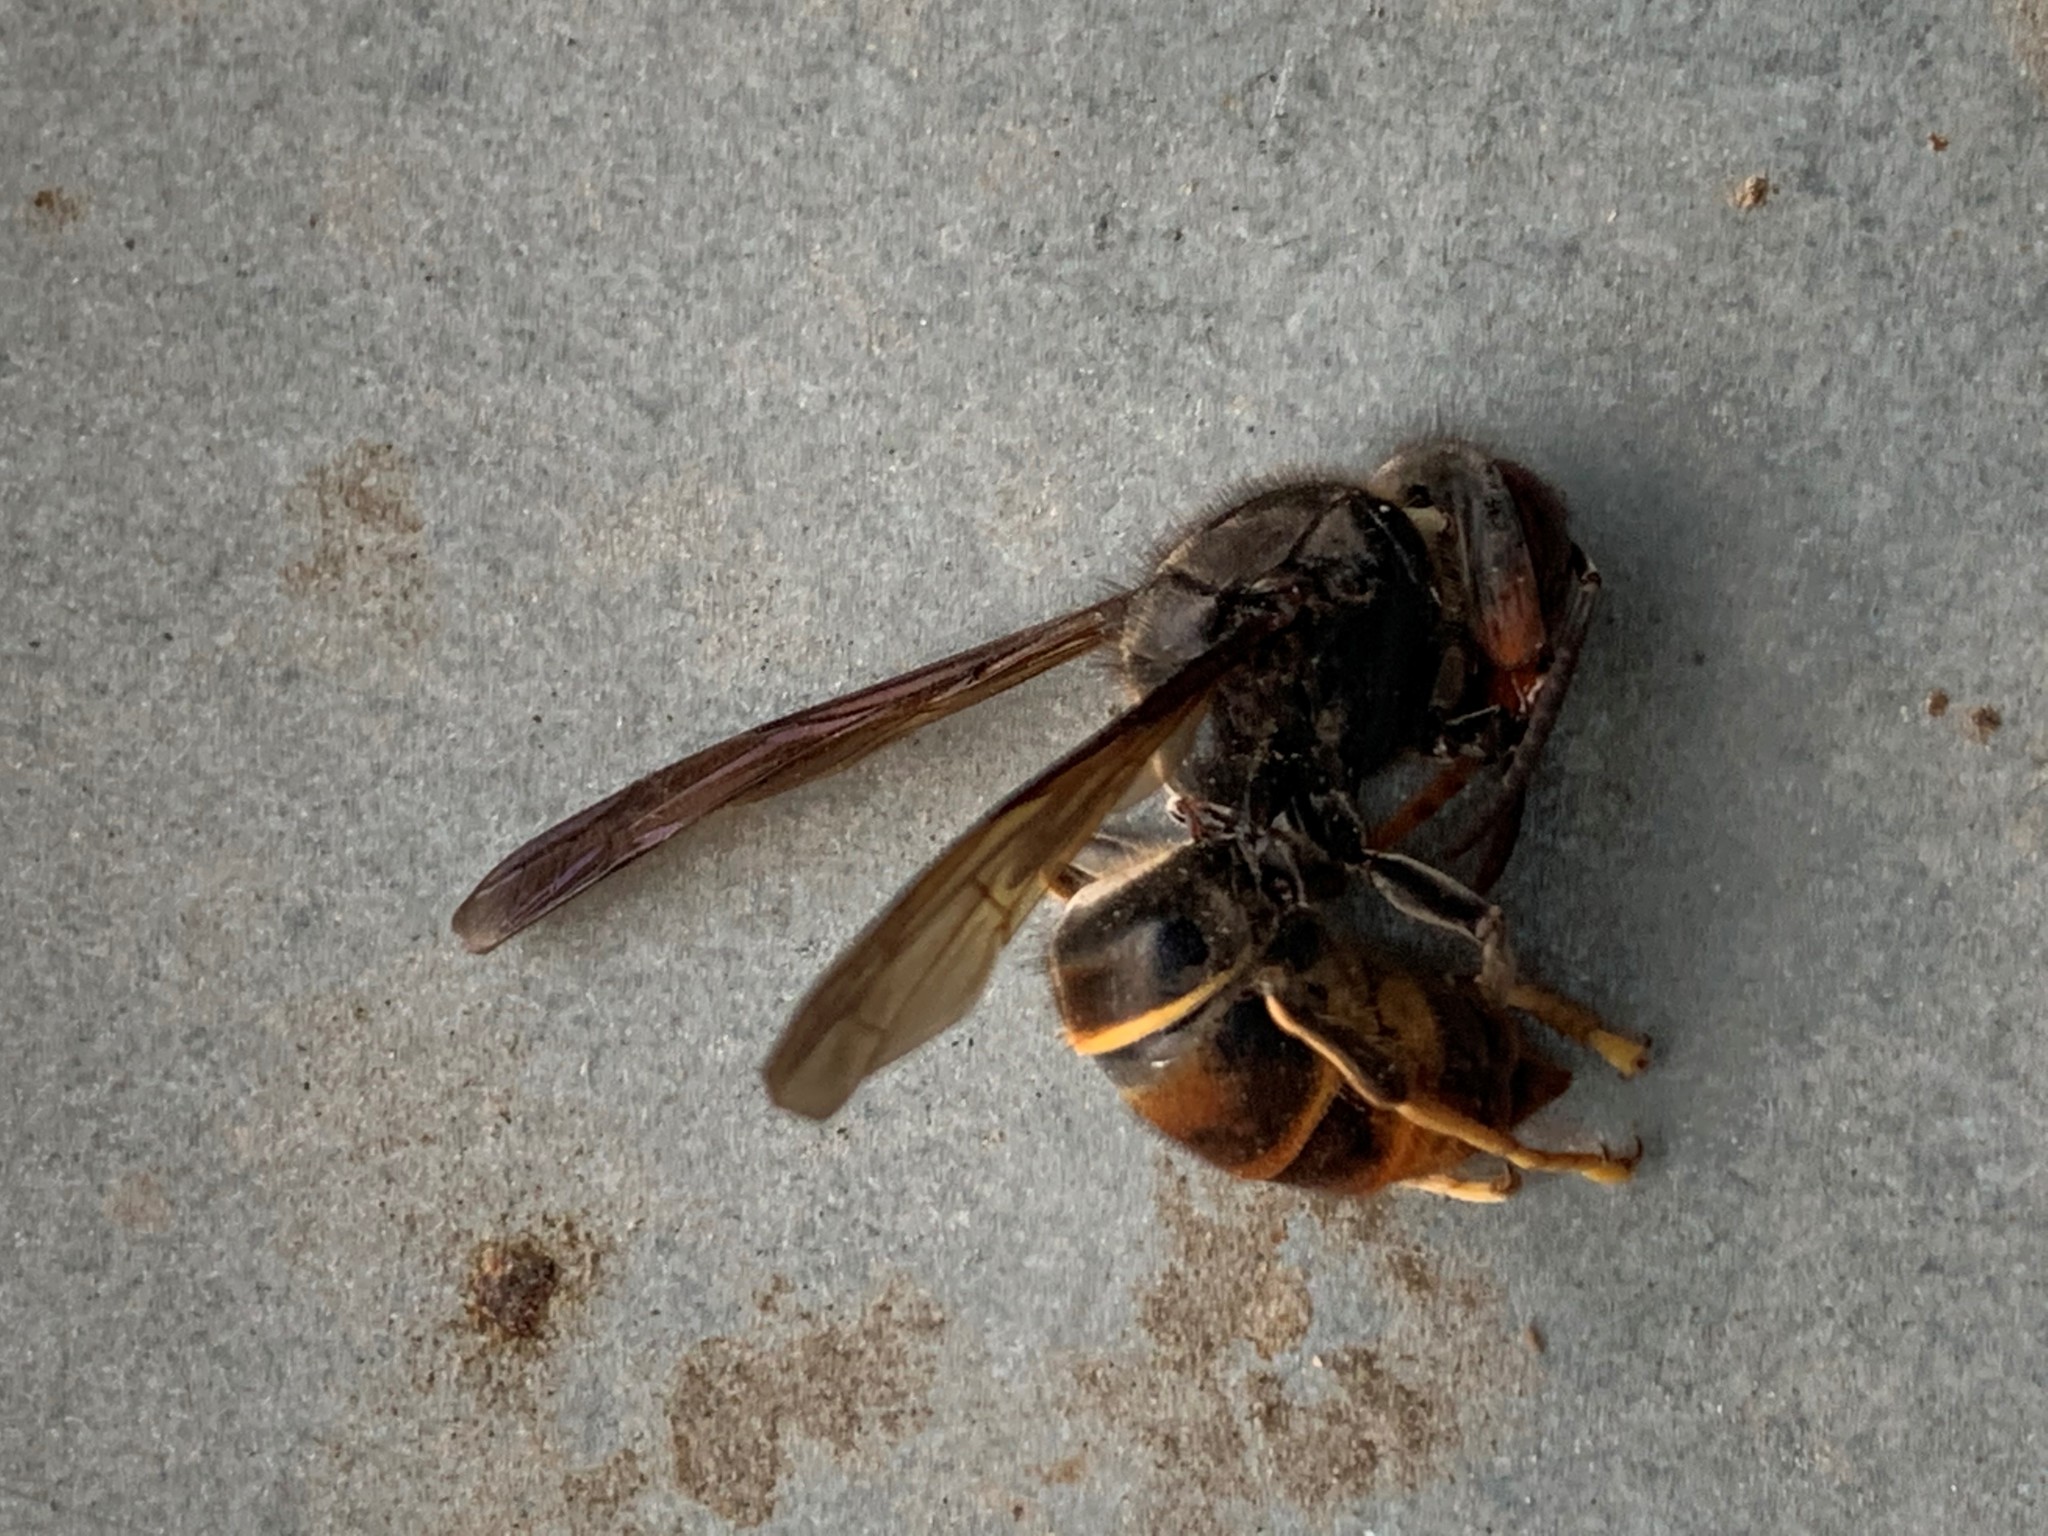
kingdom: Animalia
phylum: Arthropoda
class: Insecta
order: Hymenoptera
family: Vespidae
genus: Vespa
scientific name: Vespa velutina
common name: Asian hornet
